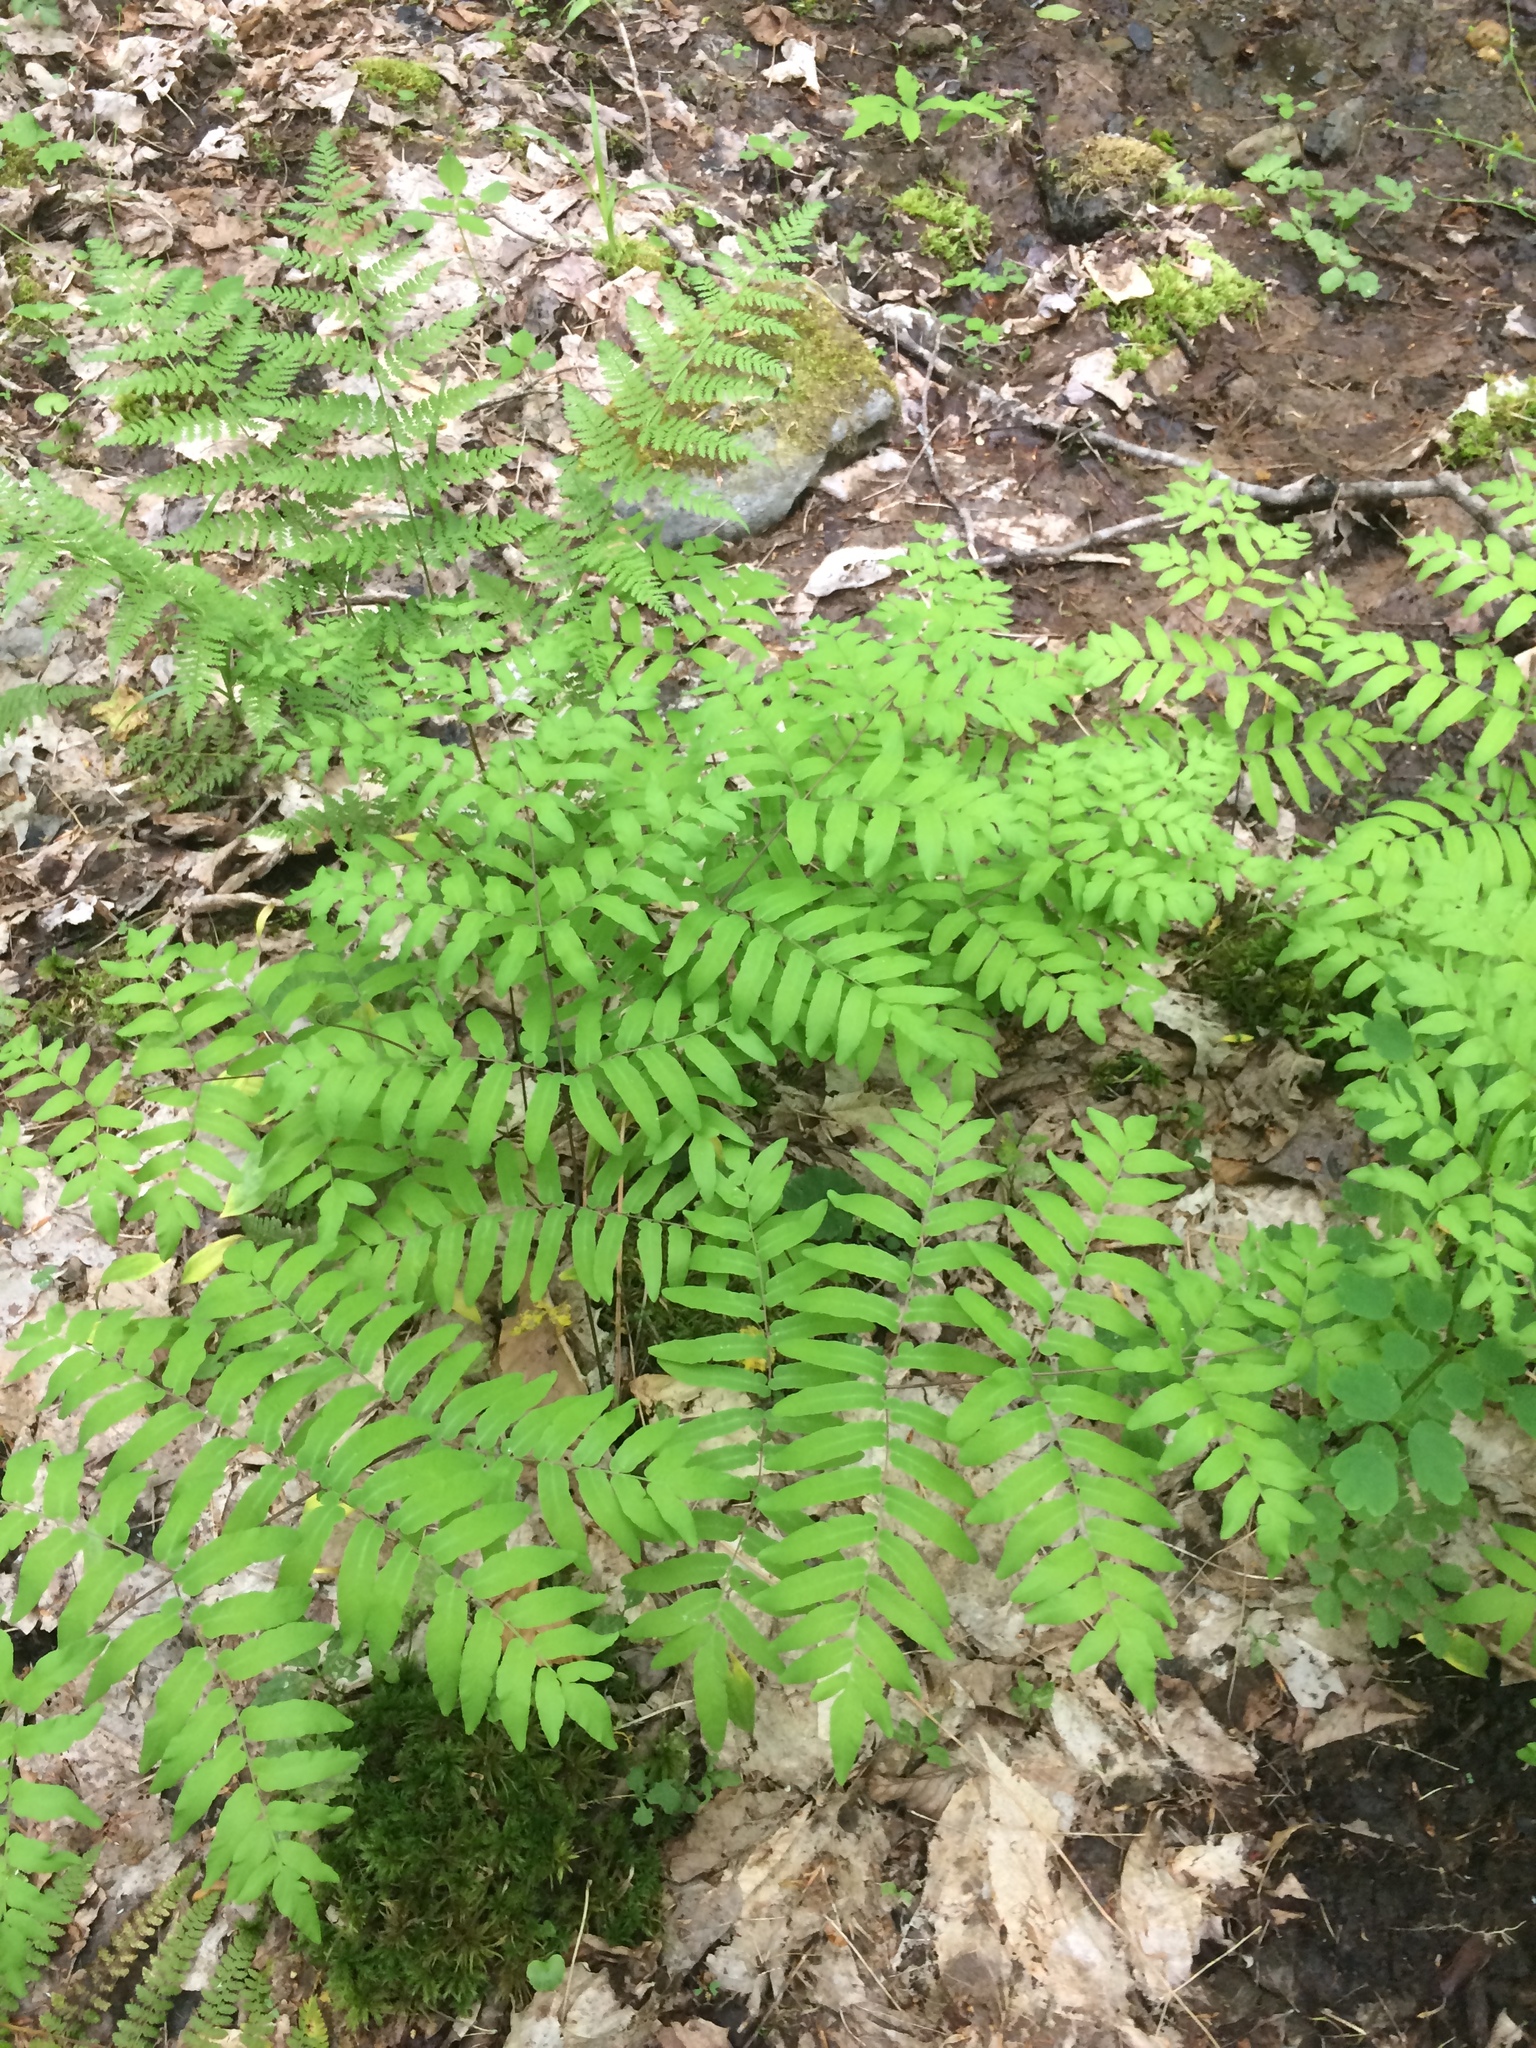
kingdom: Plantae
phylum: Tracheophyta
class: Polypodiopsida
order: Osmundales
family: Osmundaceae
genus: Osmunda
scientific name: Osmunda spectabilis
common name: American royal fern
